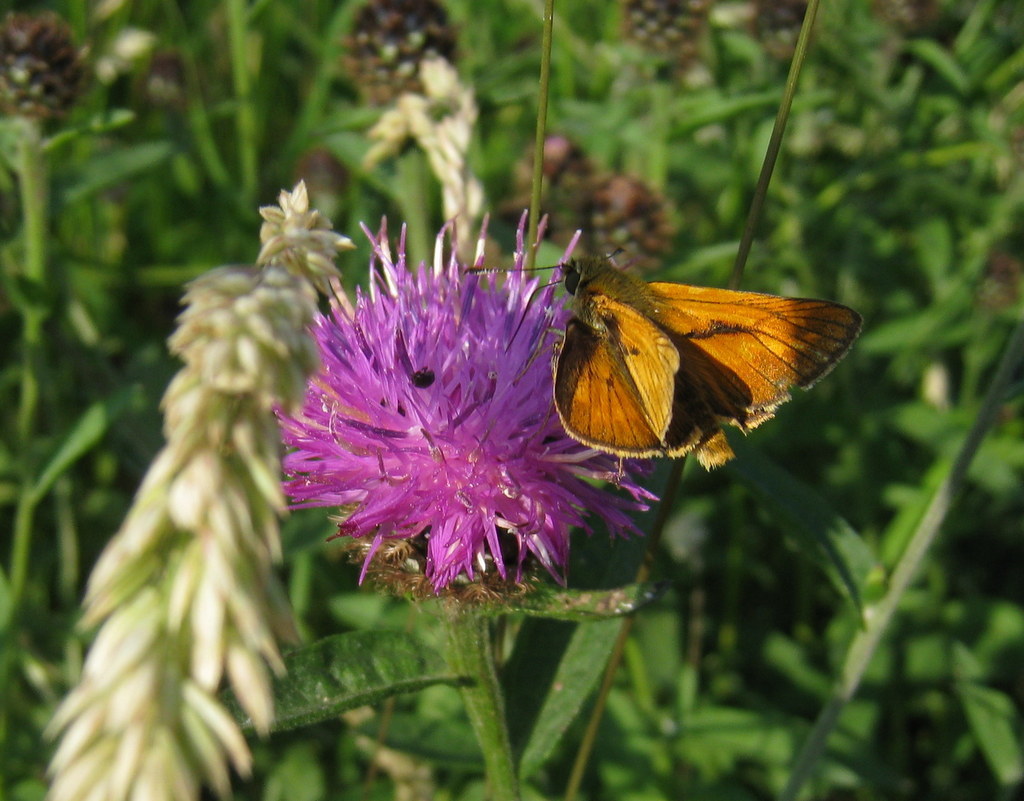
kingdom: Animalia
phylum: Arthropoda
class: Insecta
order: Lepidoptera
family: Hesperiidae
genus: Ochlodes
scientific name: Ochlodes venata
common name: Large skipper
